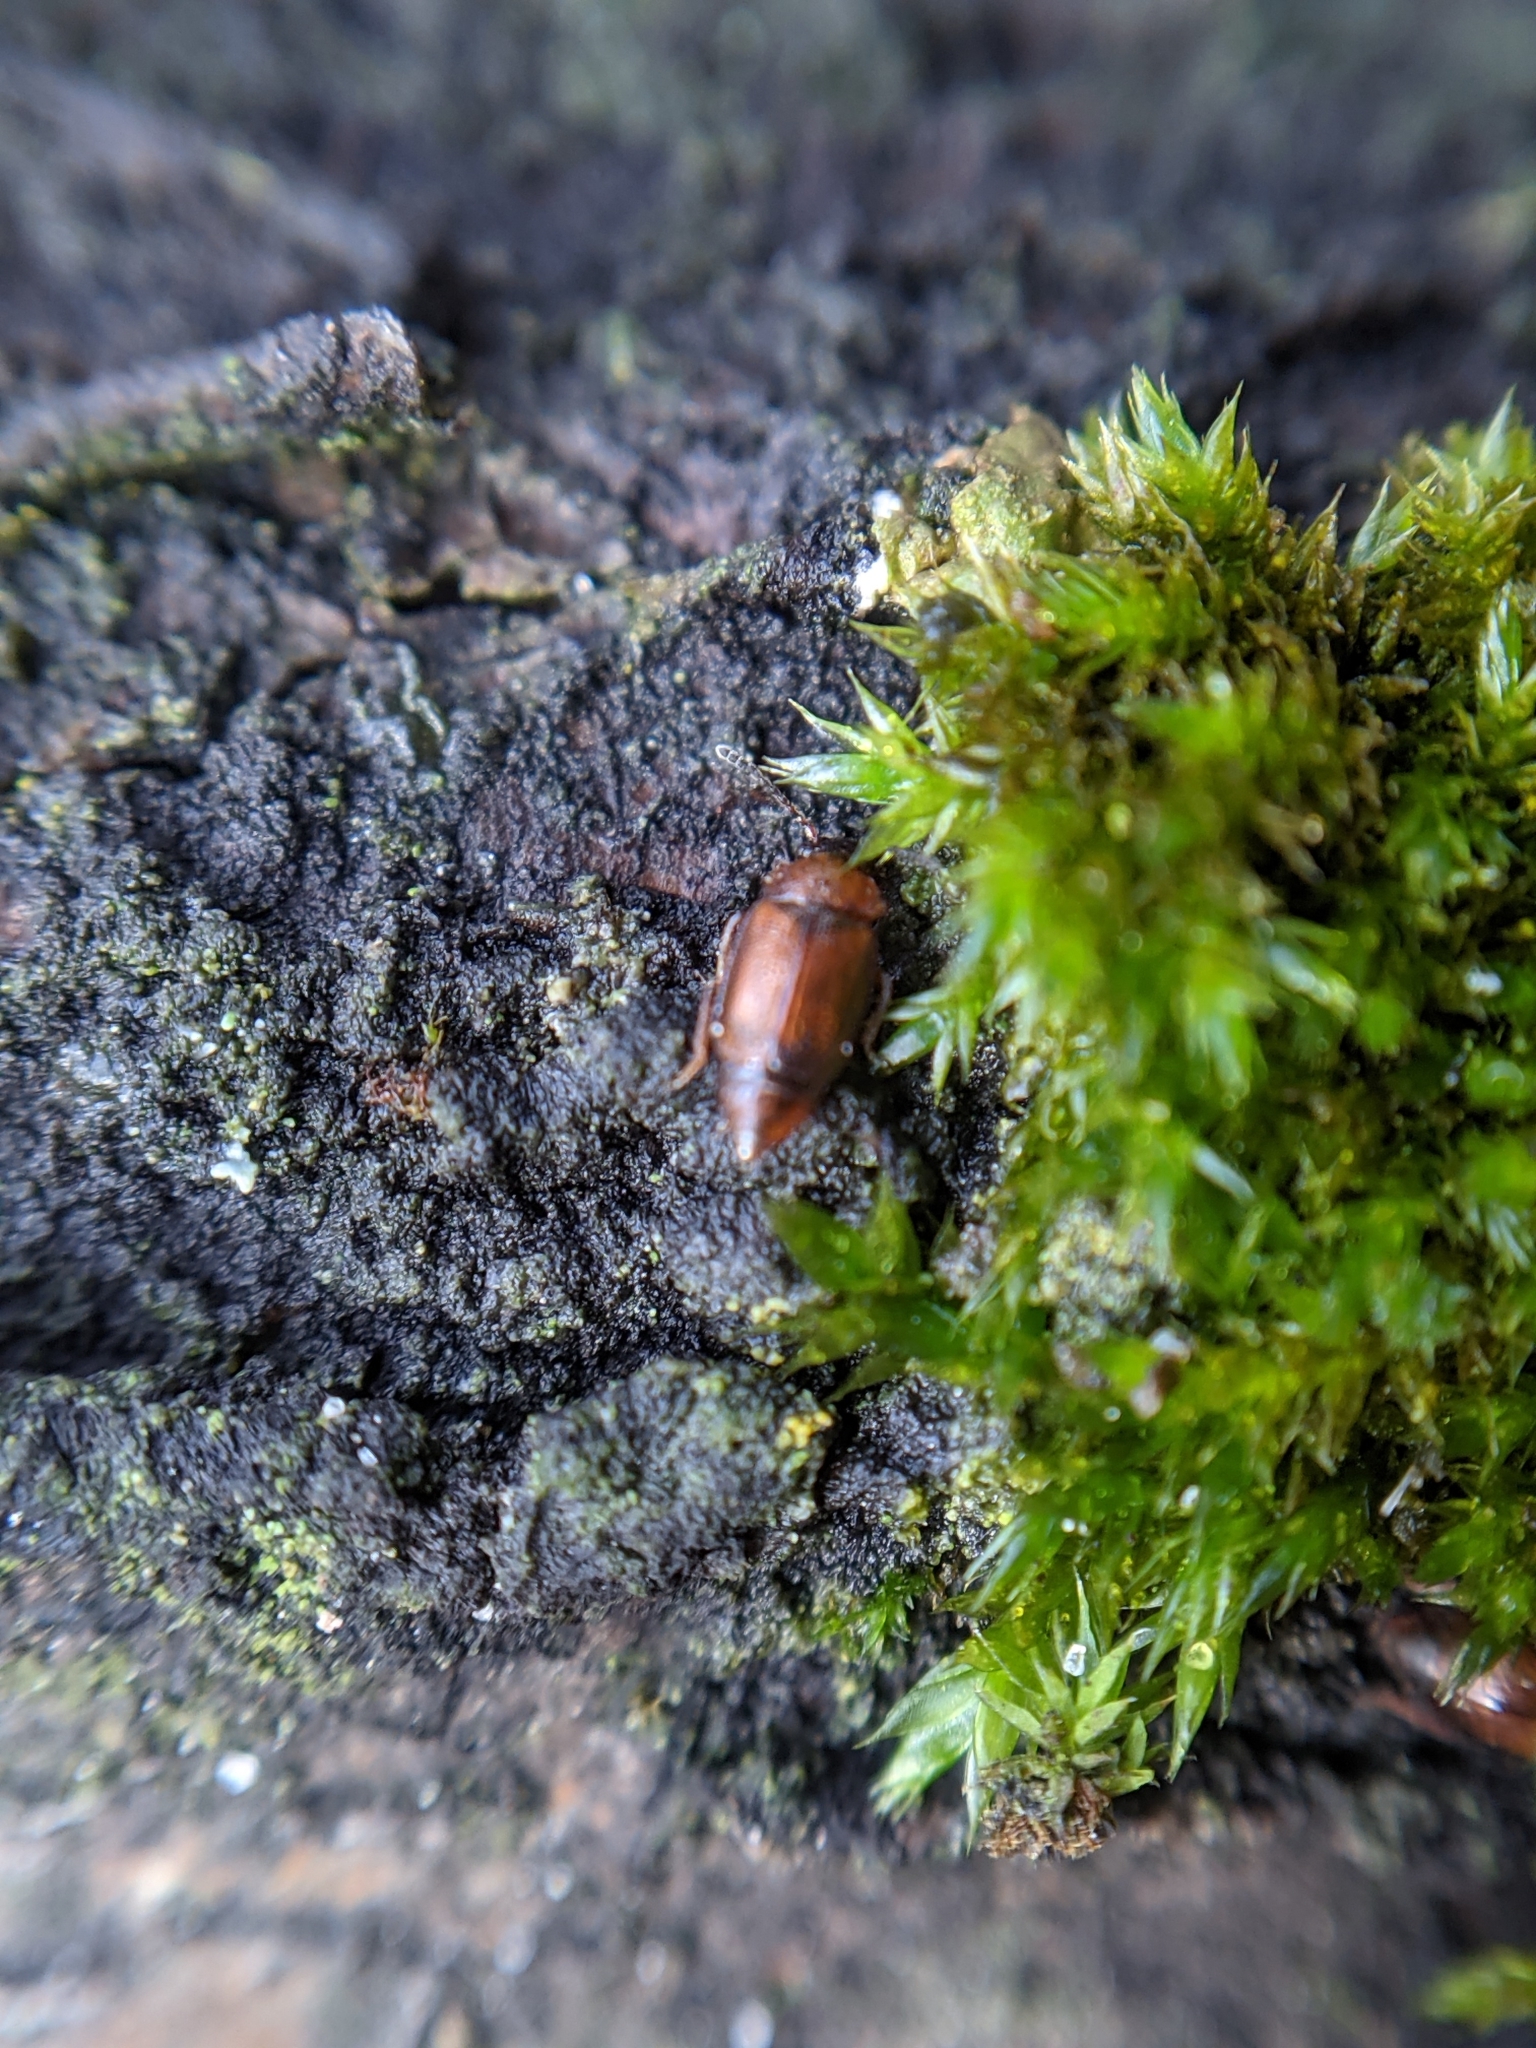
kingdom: Animalia
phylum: Arthropoda
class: Insecta
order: Coleoptera
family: Staphylinidae
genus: Anthobium
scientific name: Anthobium atrocephalum
